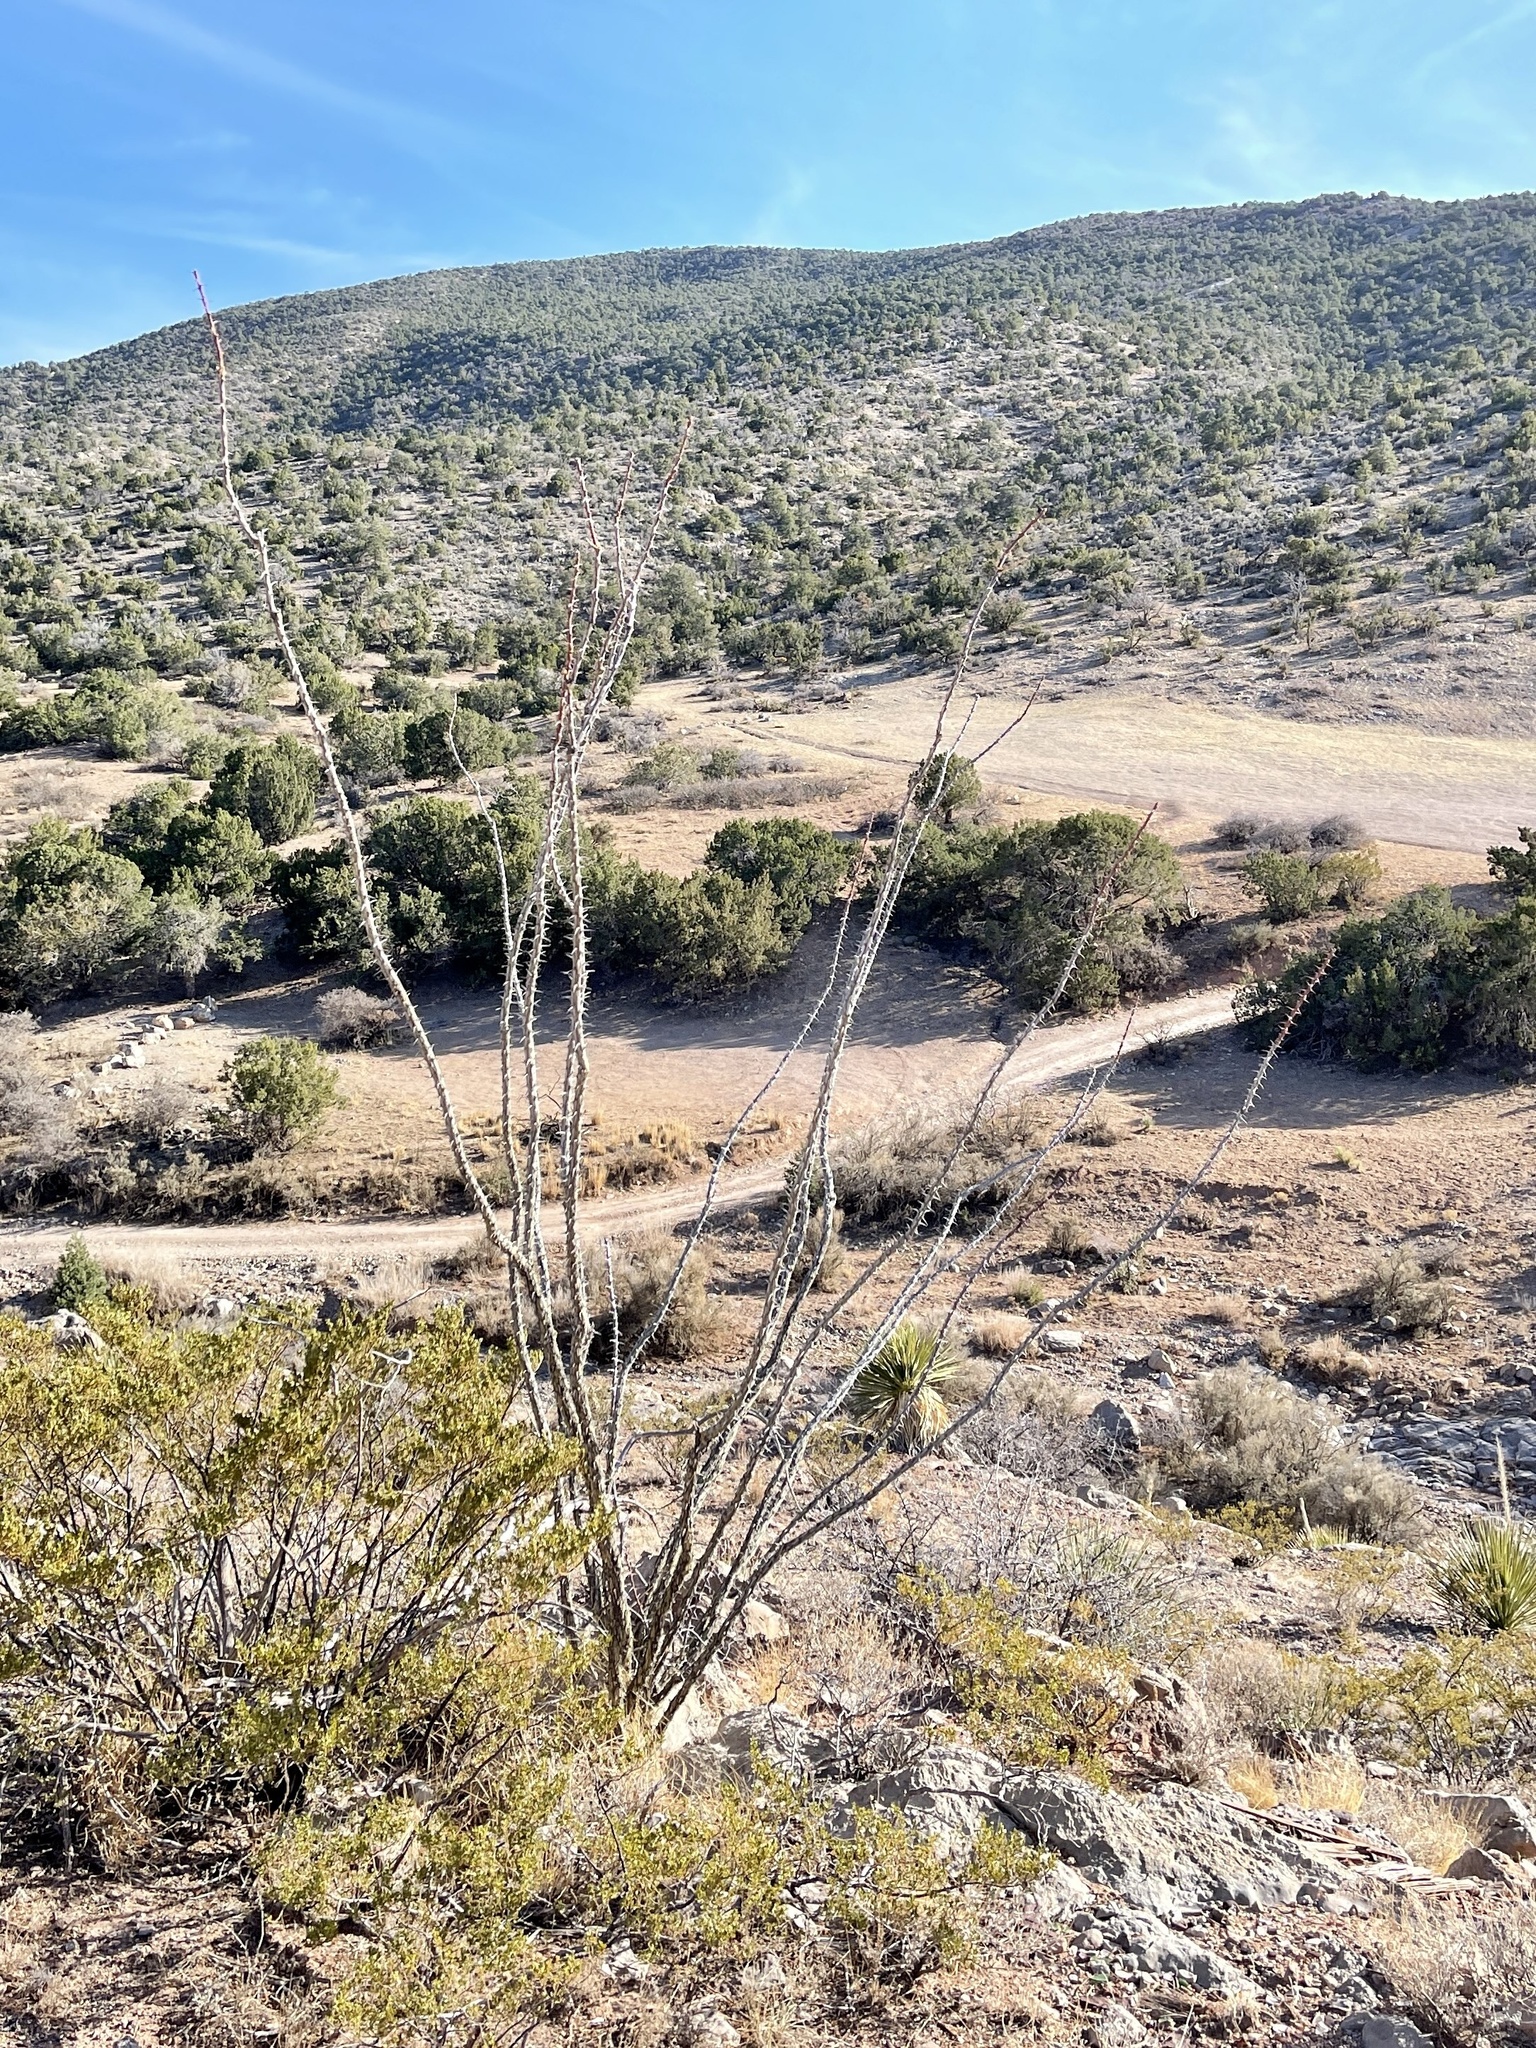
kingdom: Plantae
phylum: Tracheophyta
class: Magnoliopsida
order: Ericales
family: Fouquieriaceae
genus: Fouquieria
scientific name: Fouquieria splendens
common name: Vine-cactus
